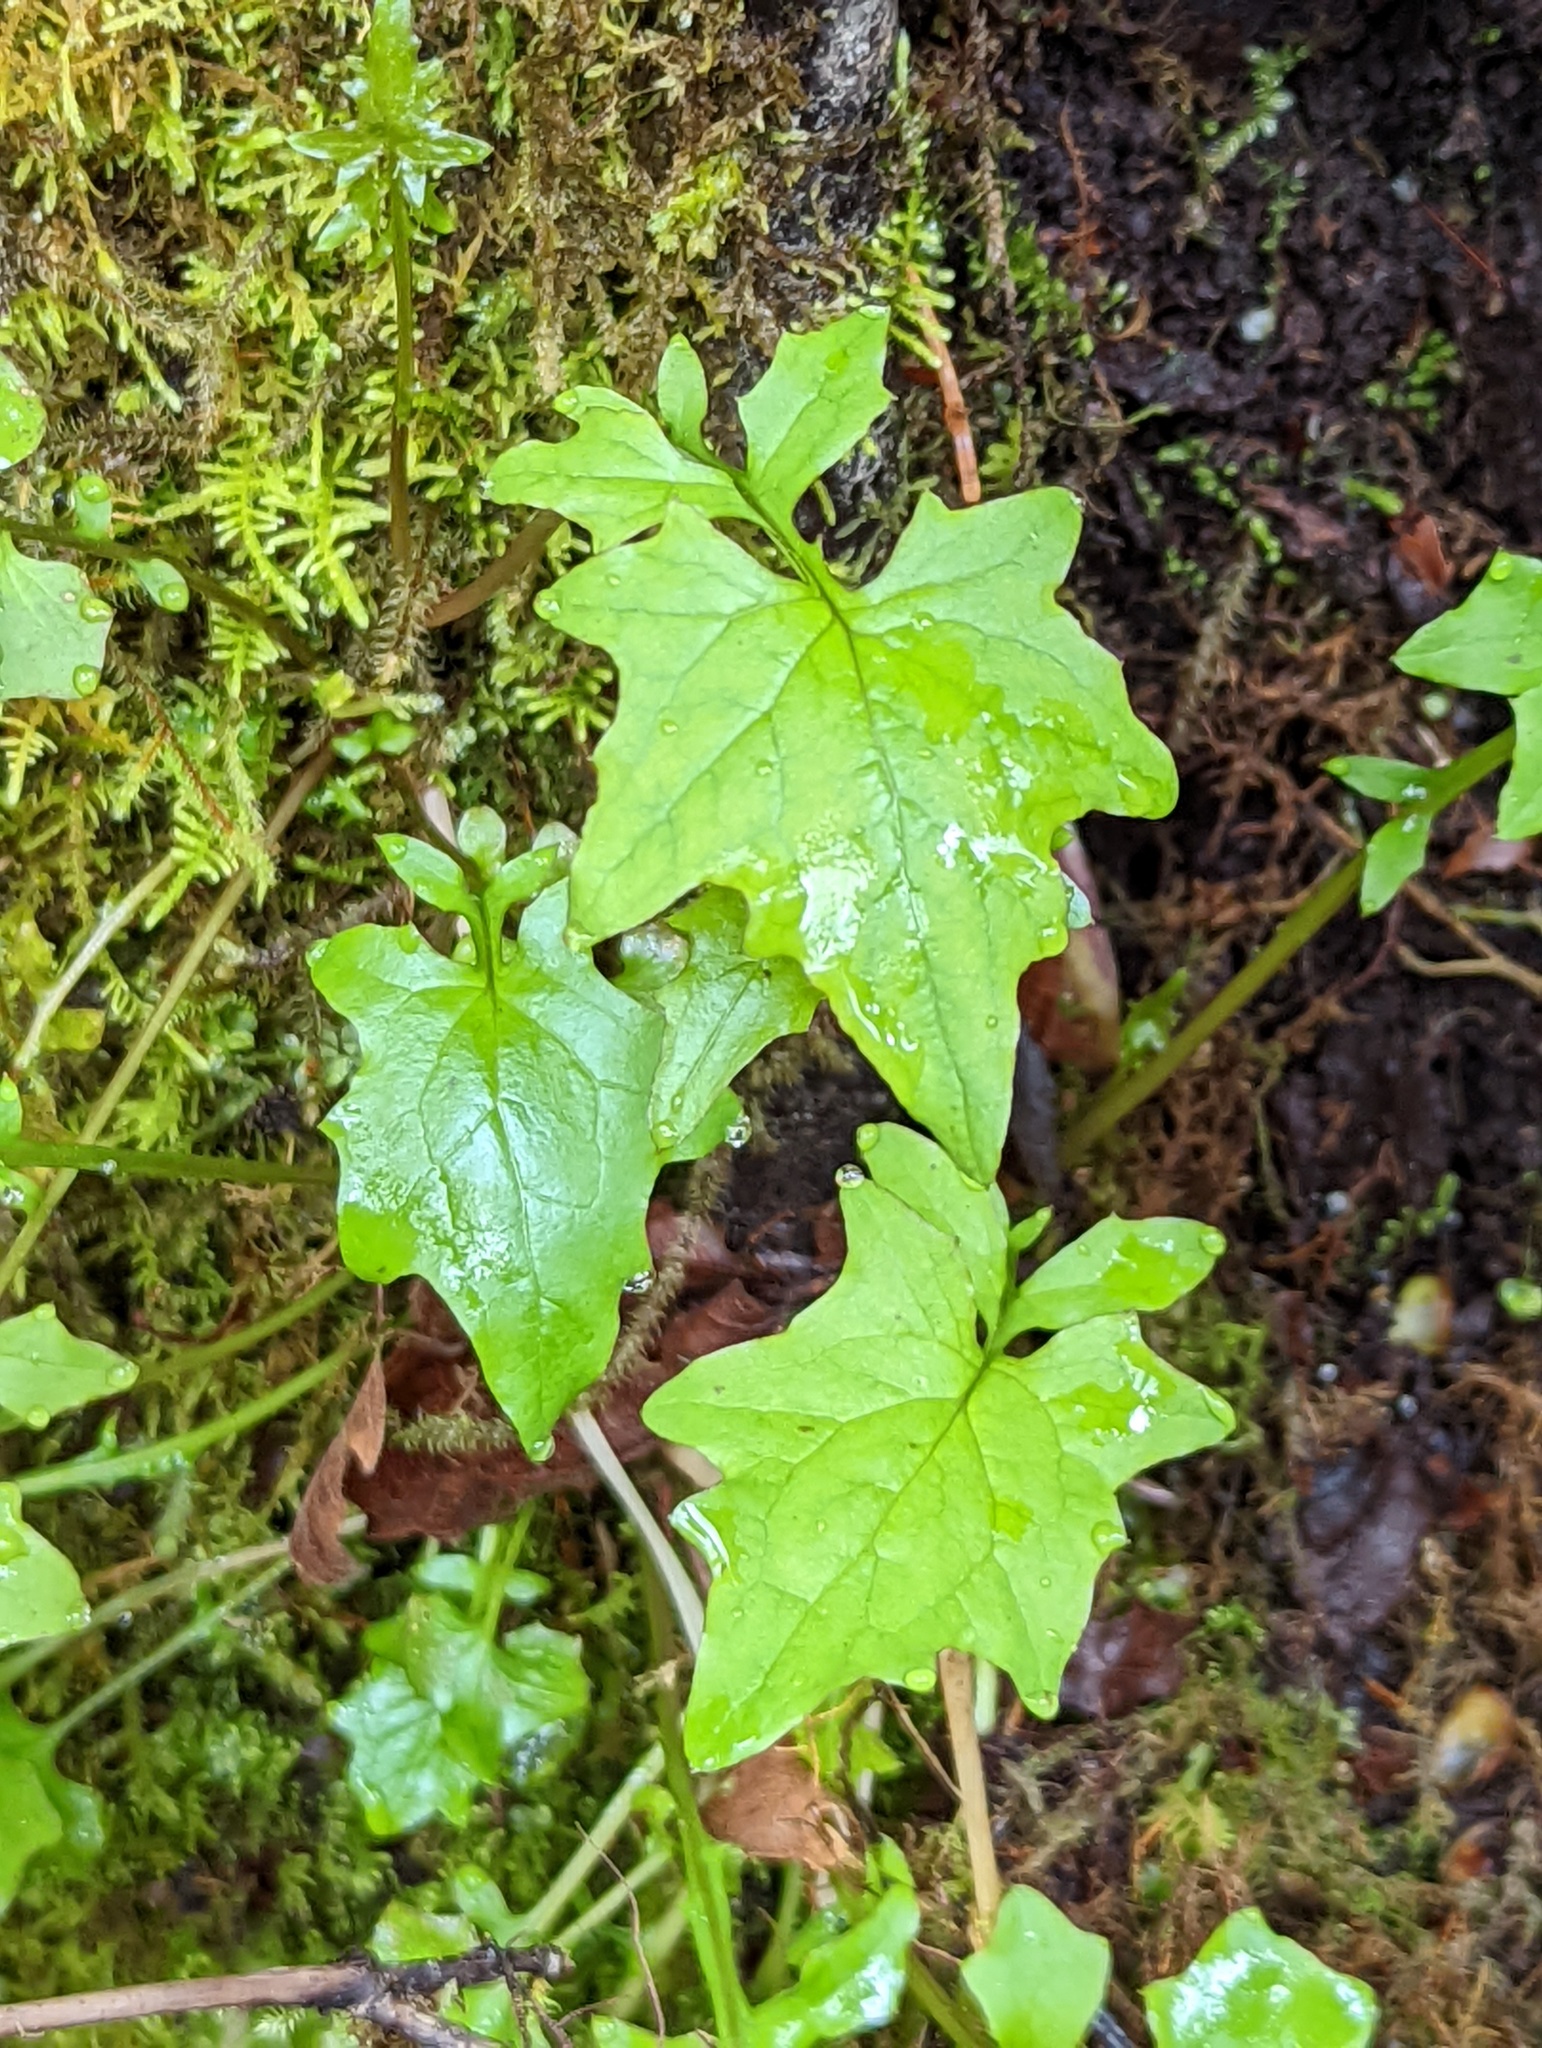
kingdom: Plantae
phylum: Tracheophyta
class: Magnoliopsida
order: Asterales
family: Asteraceae
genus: Mycelis
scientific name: Mycelis muralis
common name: Wall lettuce
